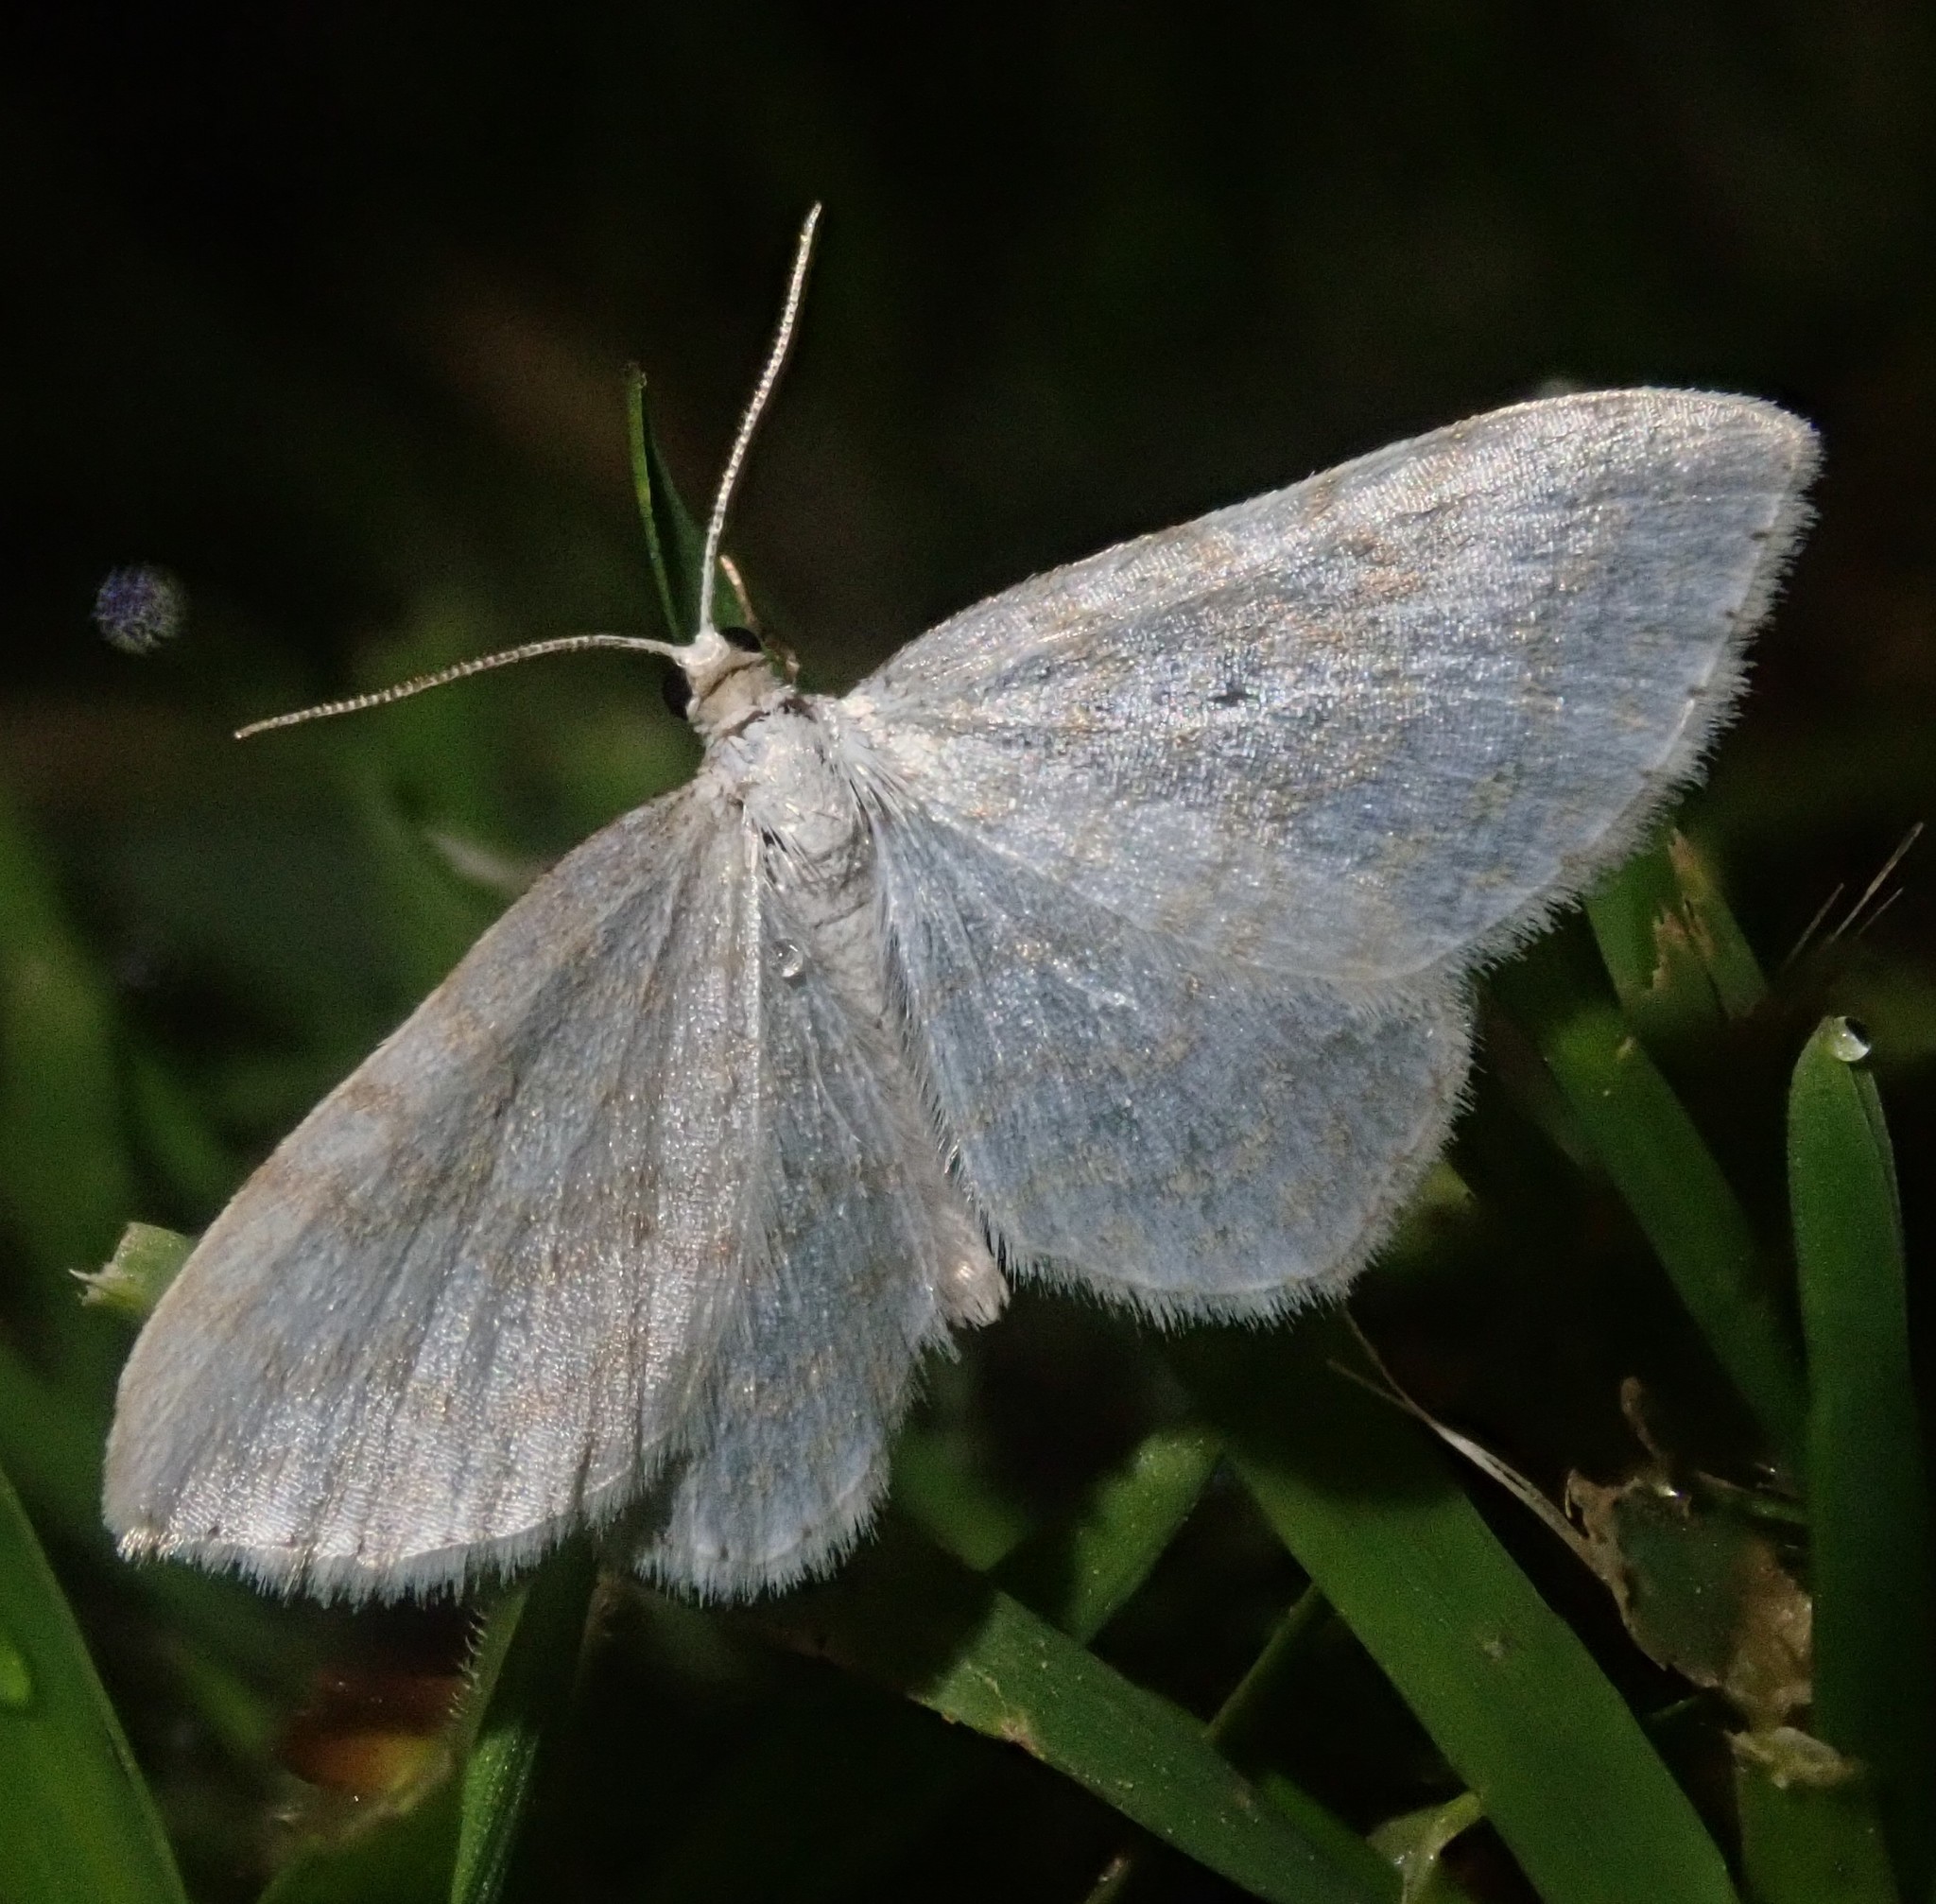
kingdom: Animalia
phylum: Arthropoda
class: Insecta
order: Lepidoptera
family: Geometridae
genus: Asthena
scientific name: Asthena albulata
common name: Small white wave
